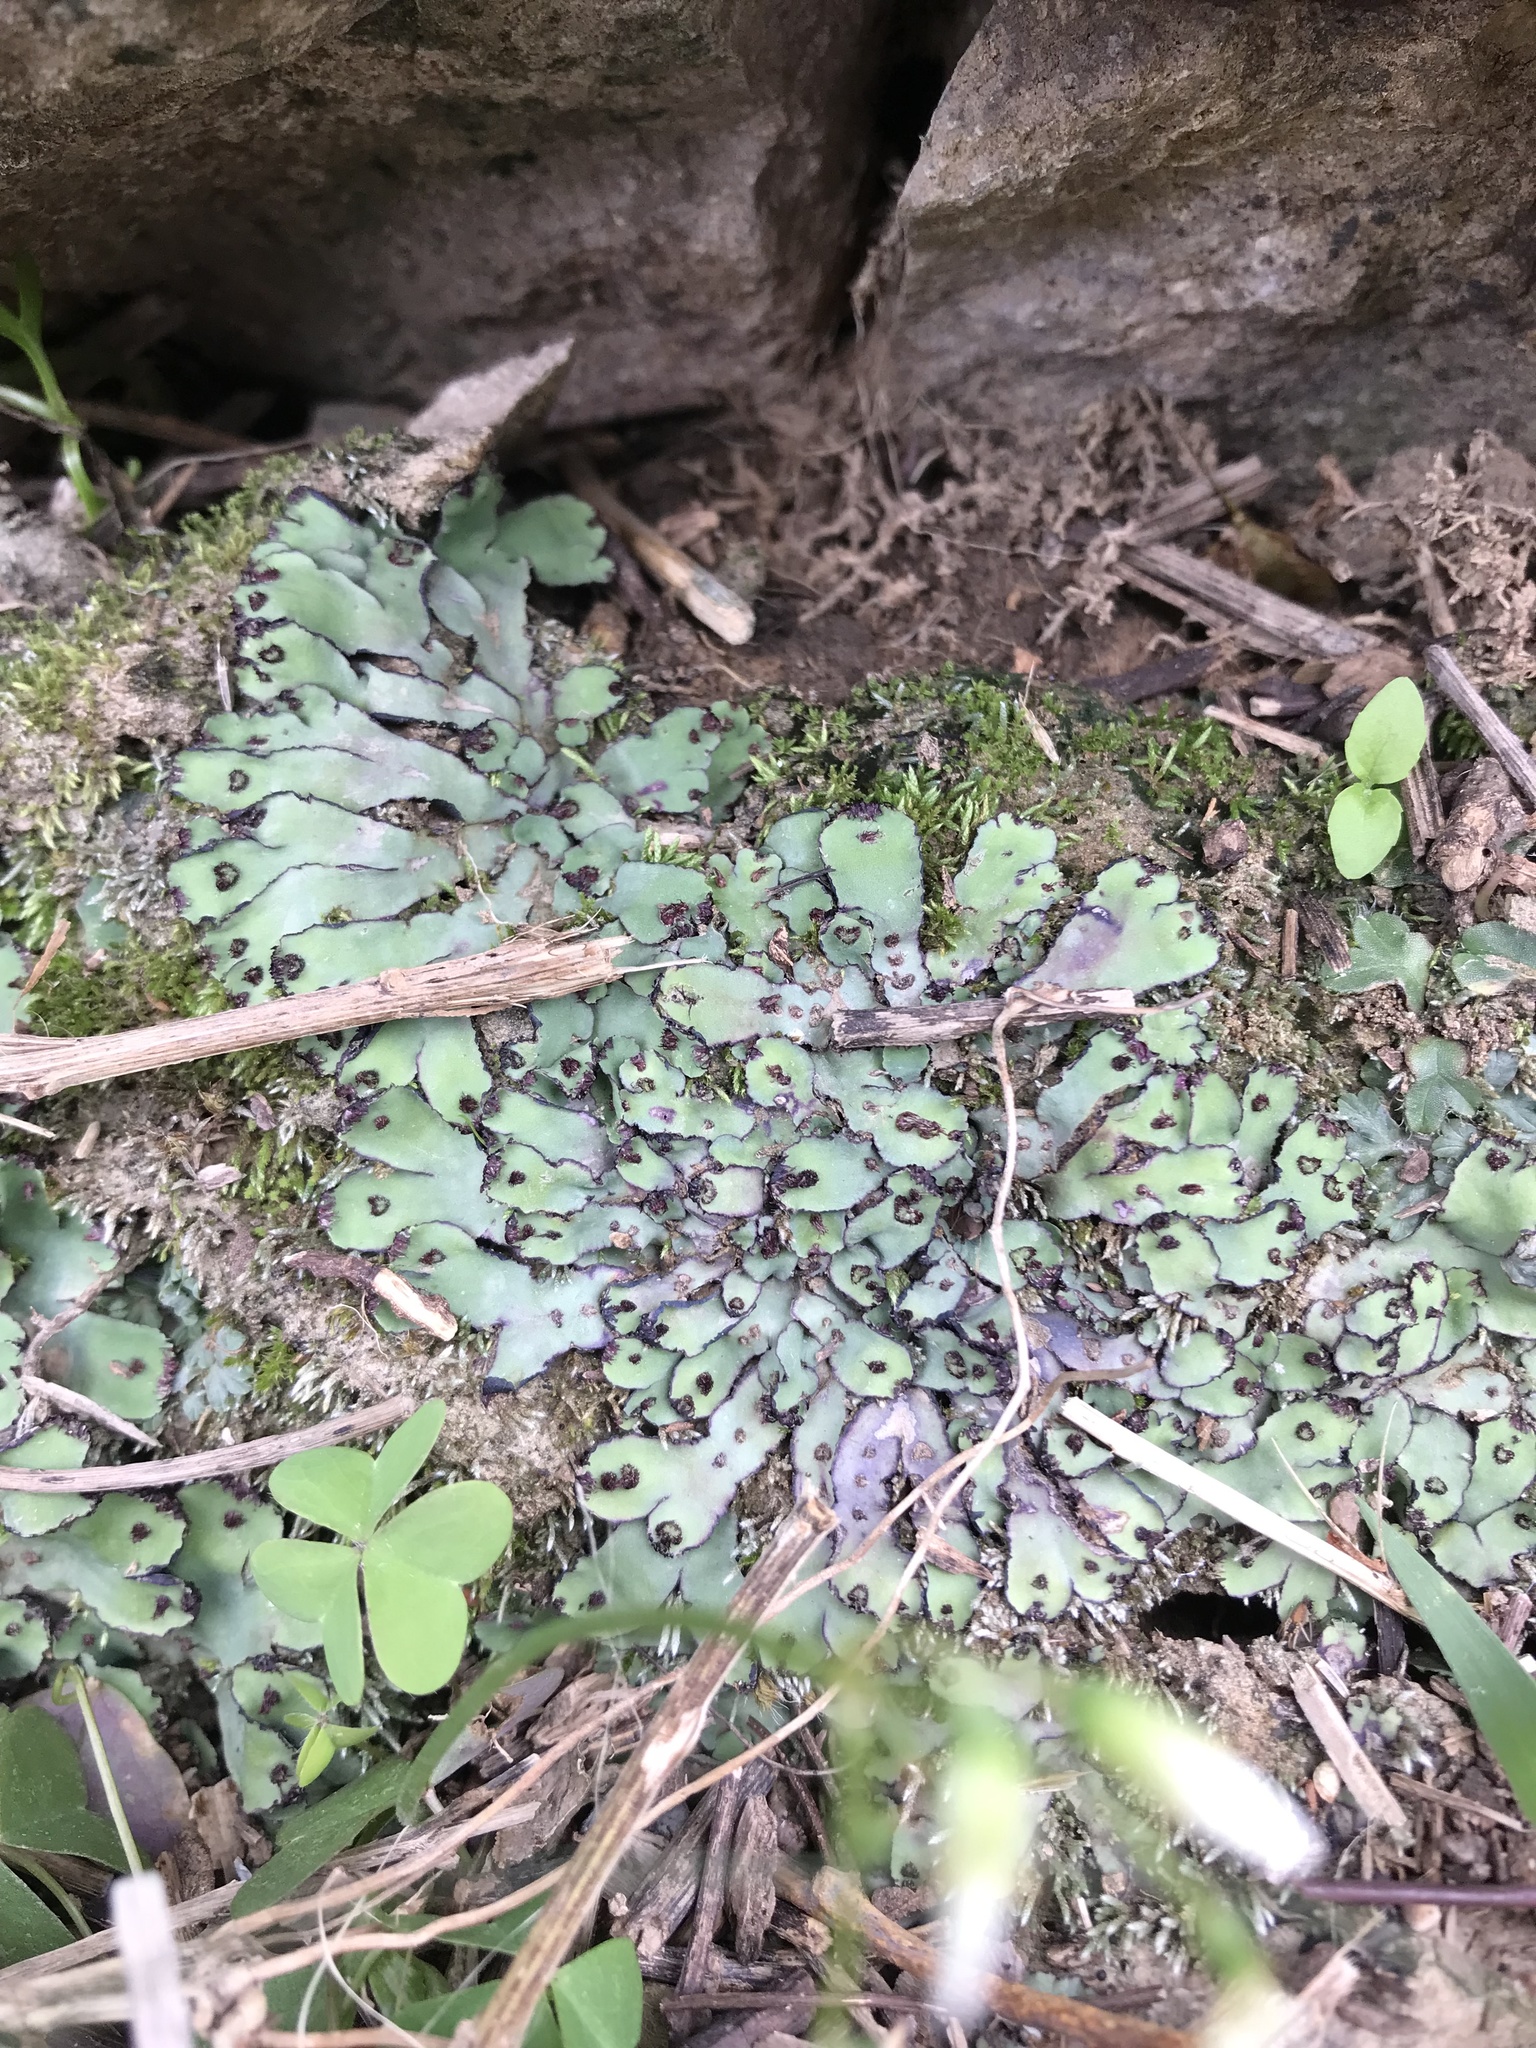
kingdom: Plantae
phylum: Marchantiophyta
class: Marchantiopsida
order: Marchantiales
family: Aytoniaceae
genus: Plagiochasma
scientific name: Plagiochasma rupestre
